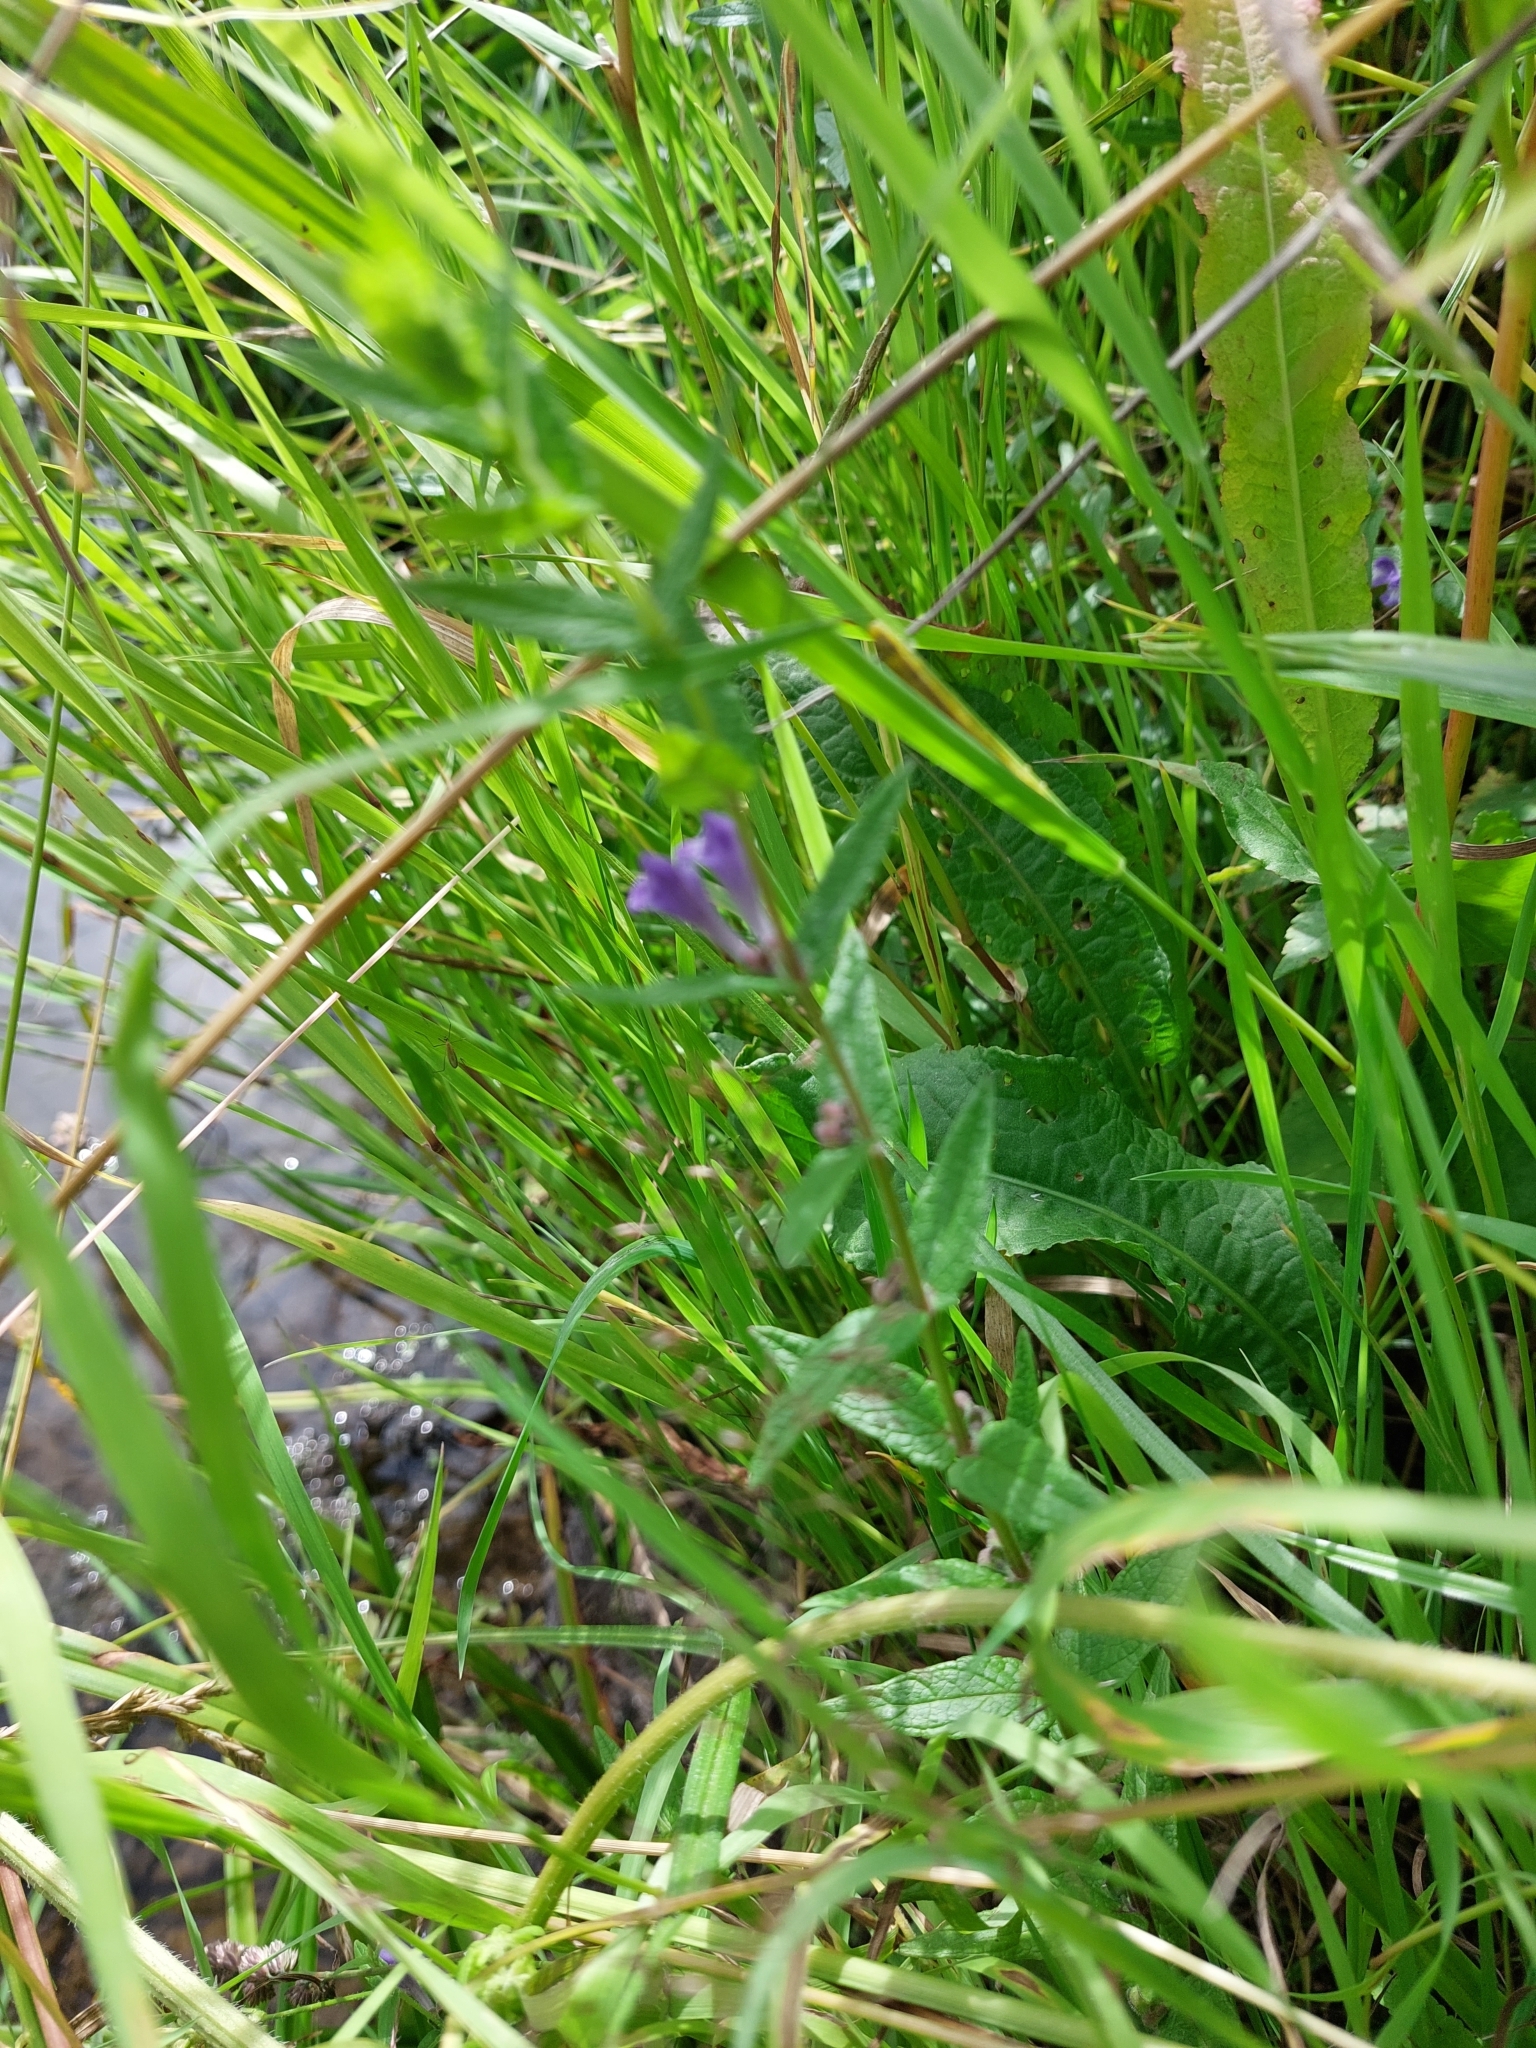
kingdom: Plantae
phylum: Tracheophyta
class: Magnoliopsida
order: Lamiales
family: Lamiaceae
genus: Scutellaria
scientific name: Scutellaria galericulata
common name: Skullcap
